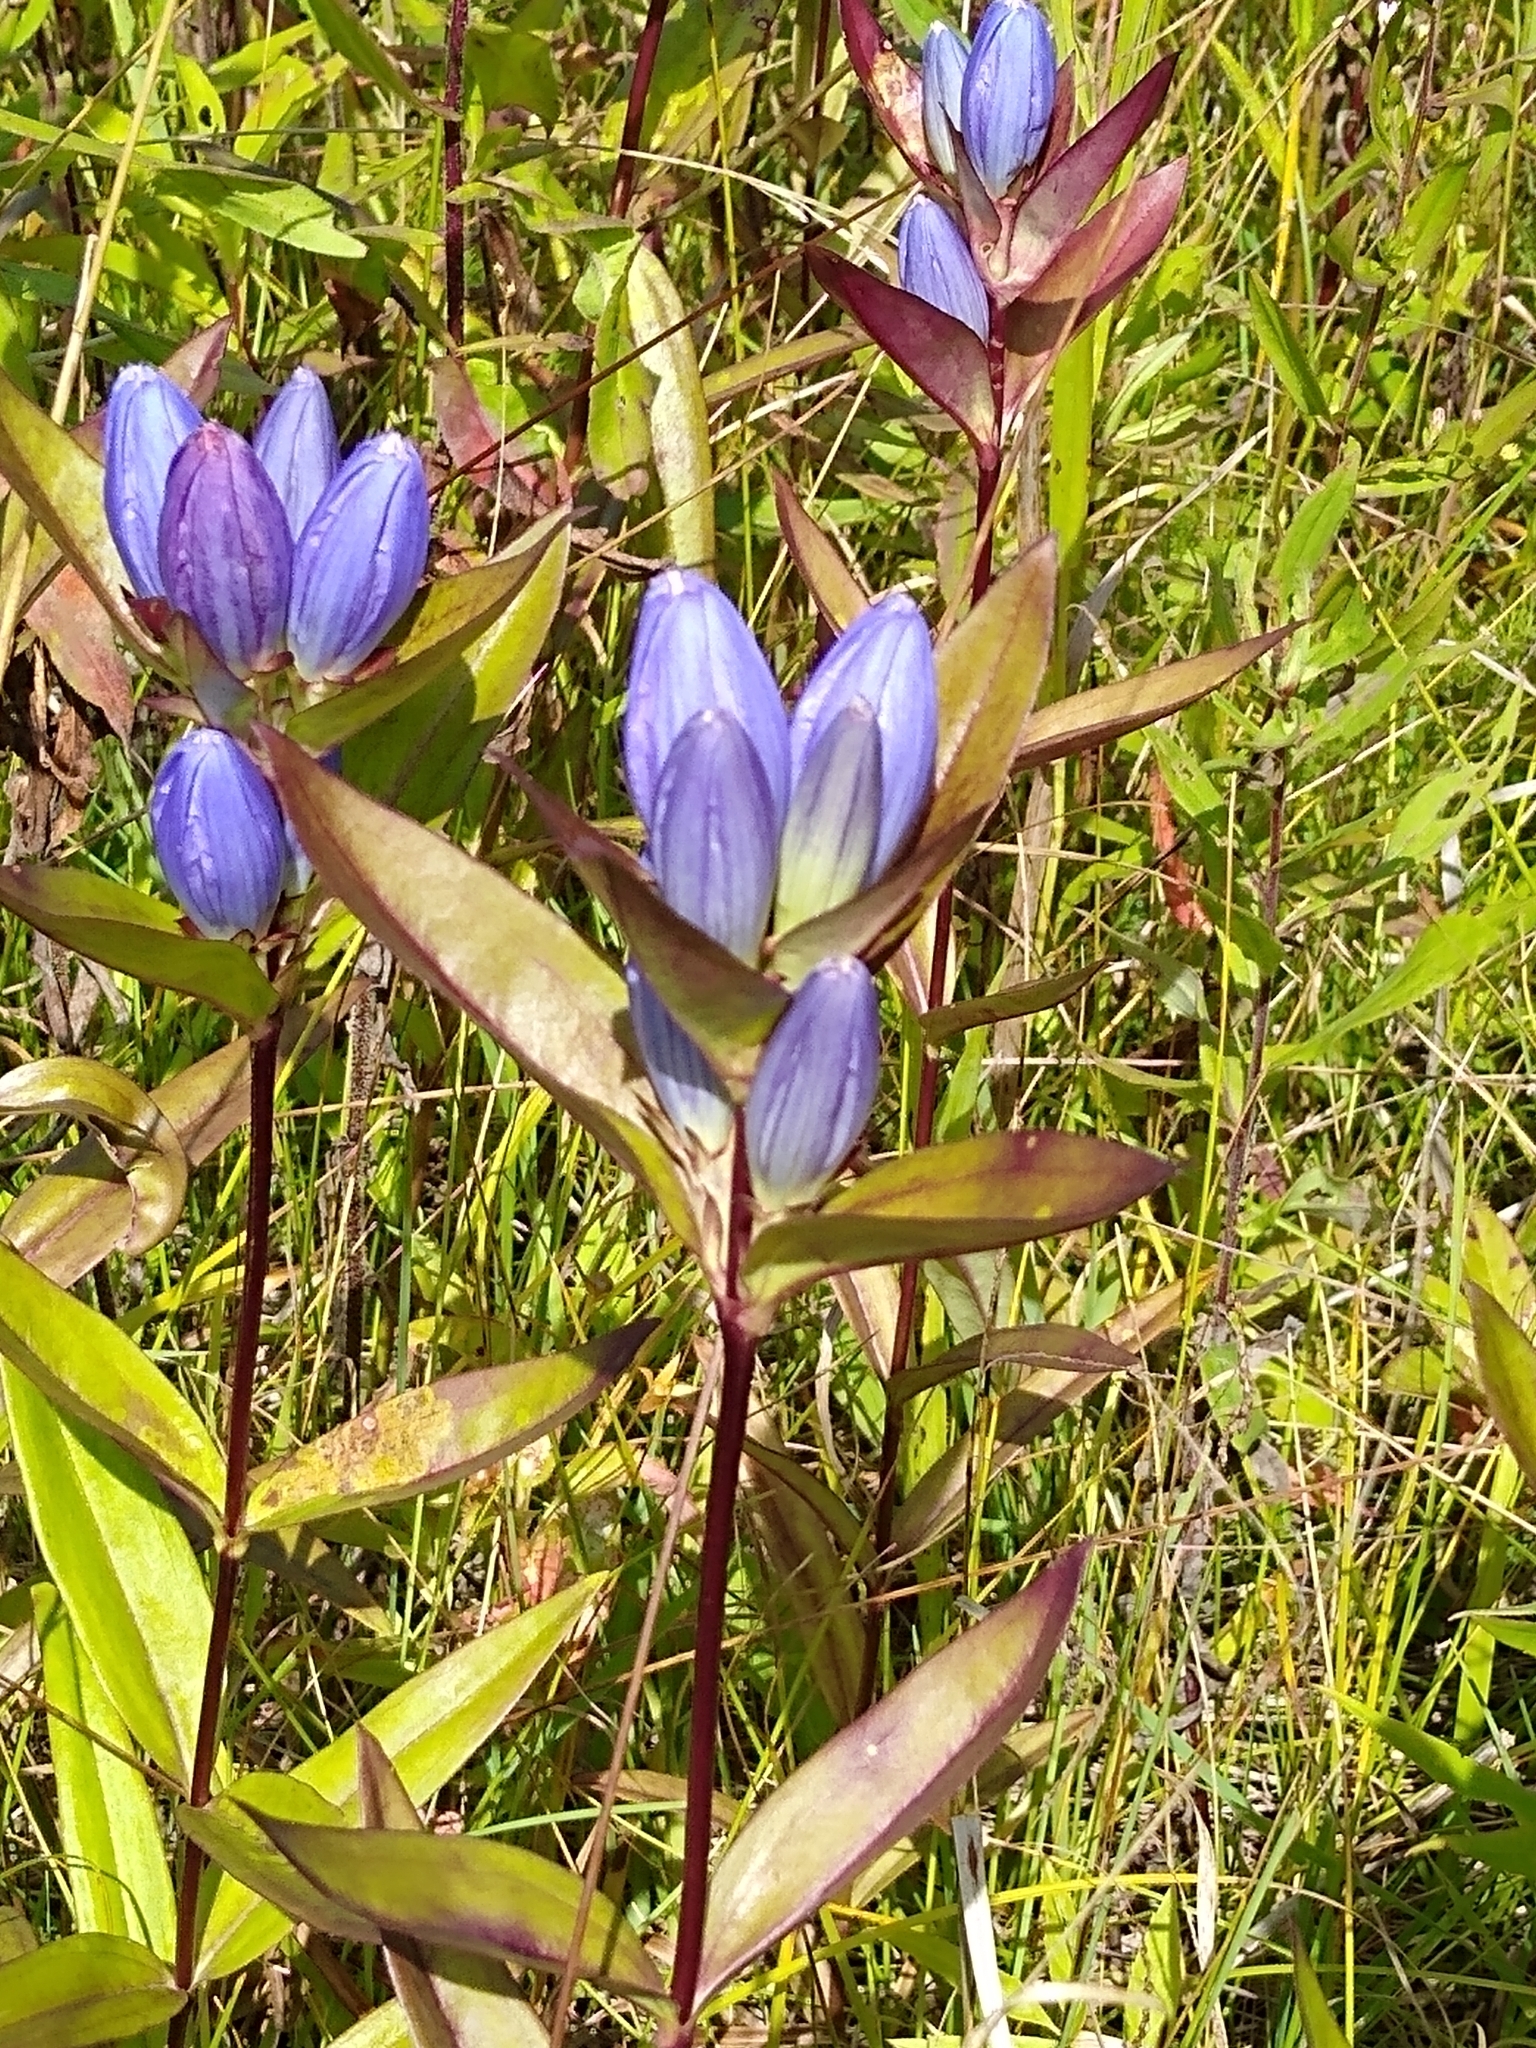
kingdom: Plantae
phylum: Tracheophyta
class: Magnoliopsida
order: Gentianales
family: Gentianaceae
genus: Gentiana
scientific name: Gentiana andrewsii
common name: Bottle gentian
